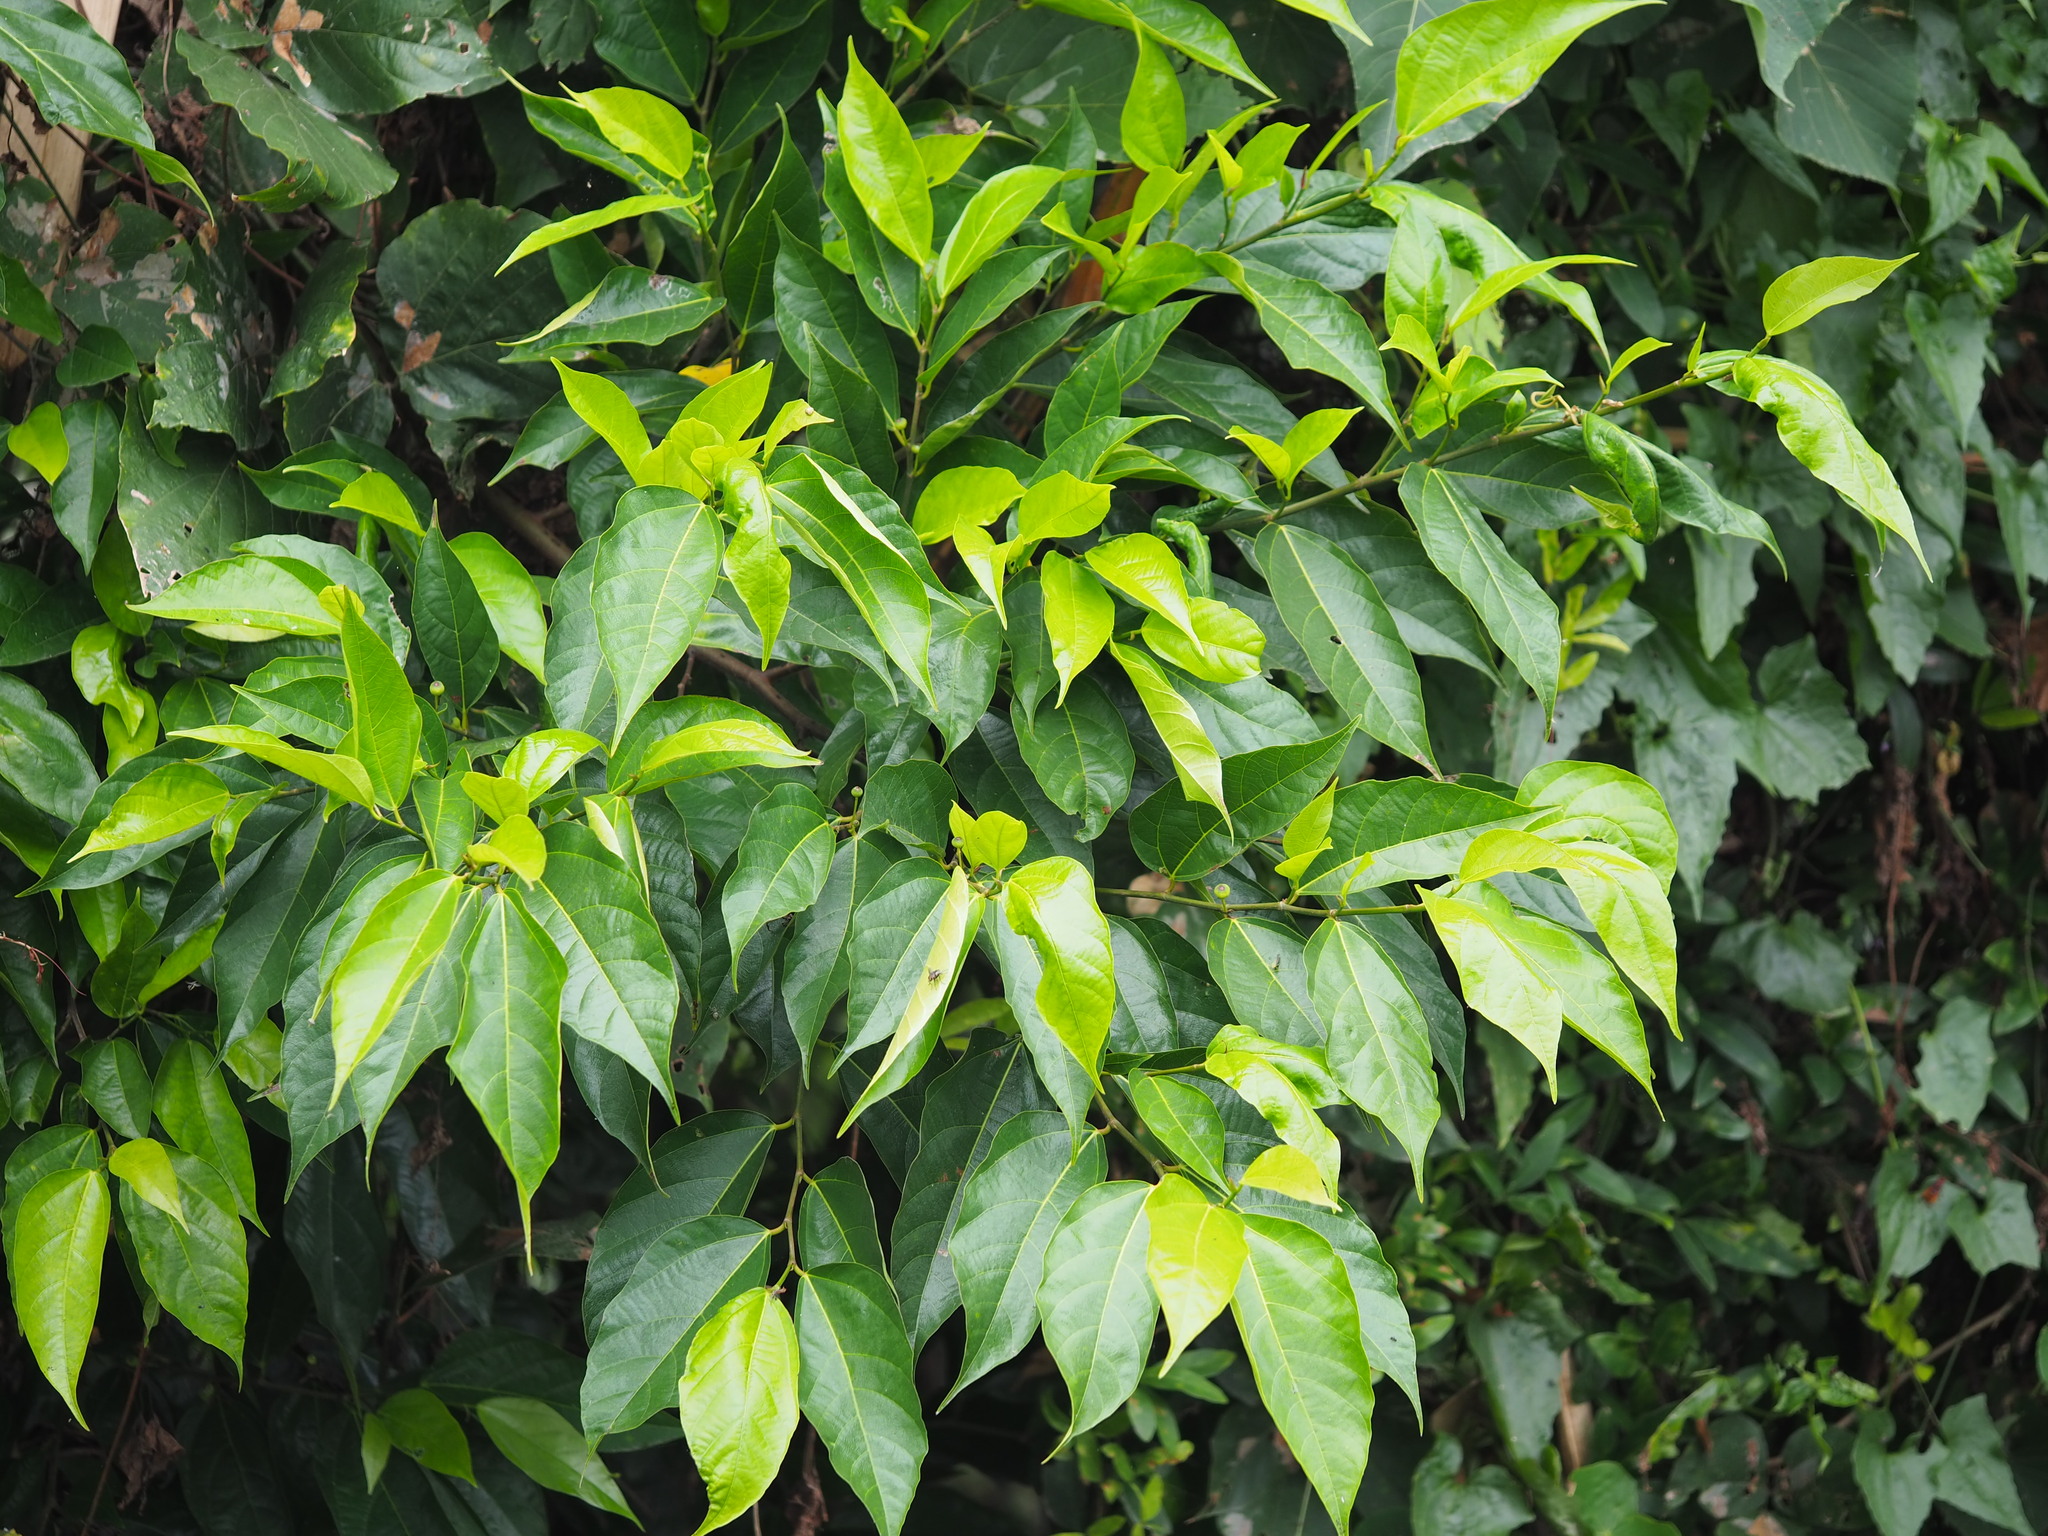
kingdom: Plantae
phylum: Tracheophyta
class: Magnoliopsida
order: Rosales
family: Moraceae
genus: Ficus
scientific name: Ficus ampelos
